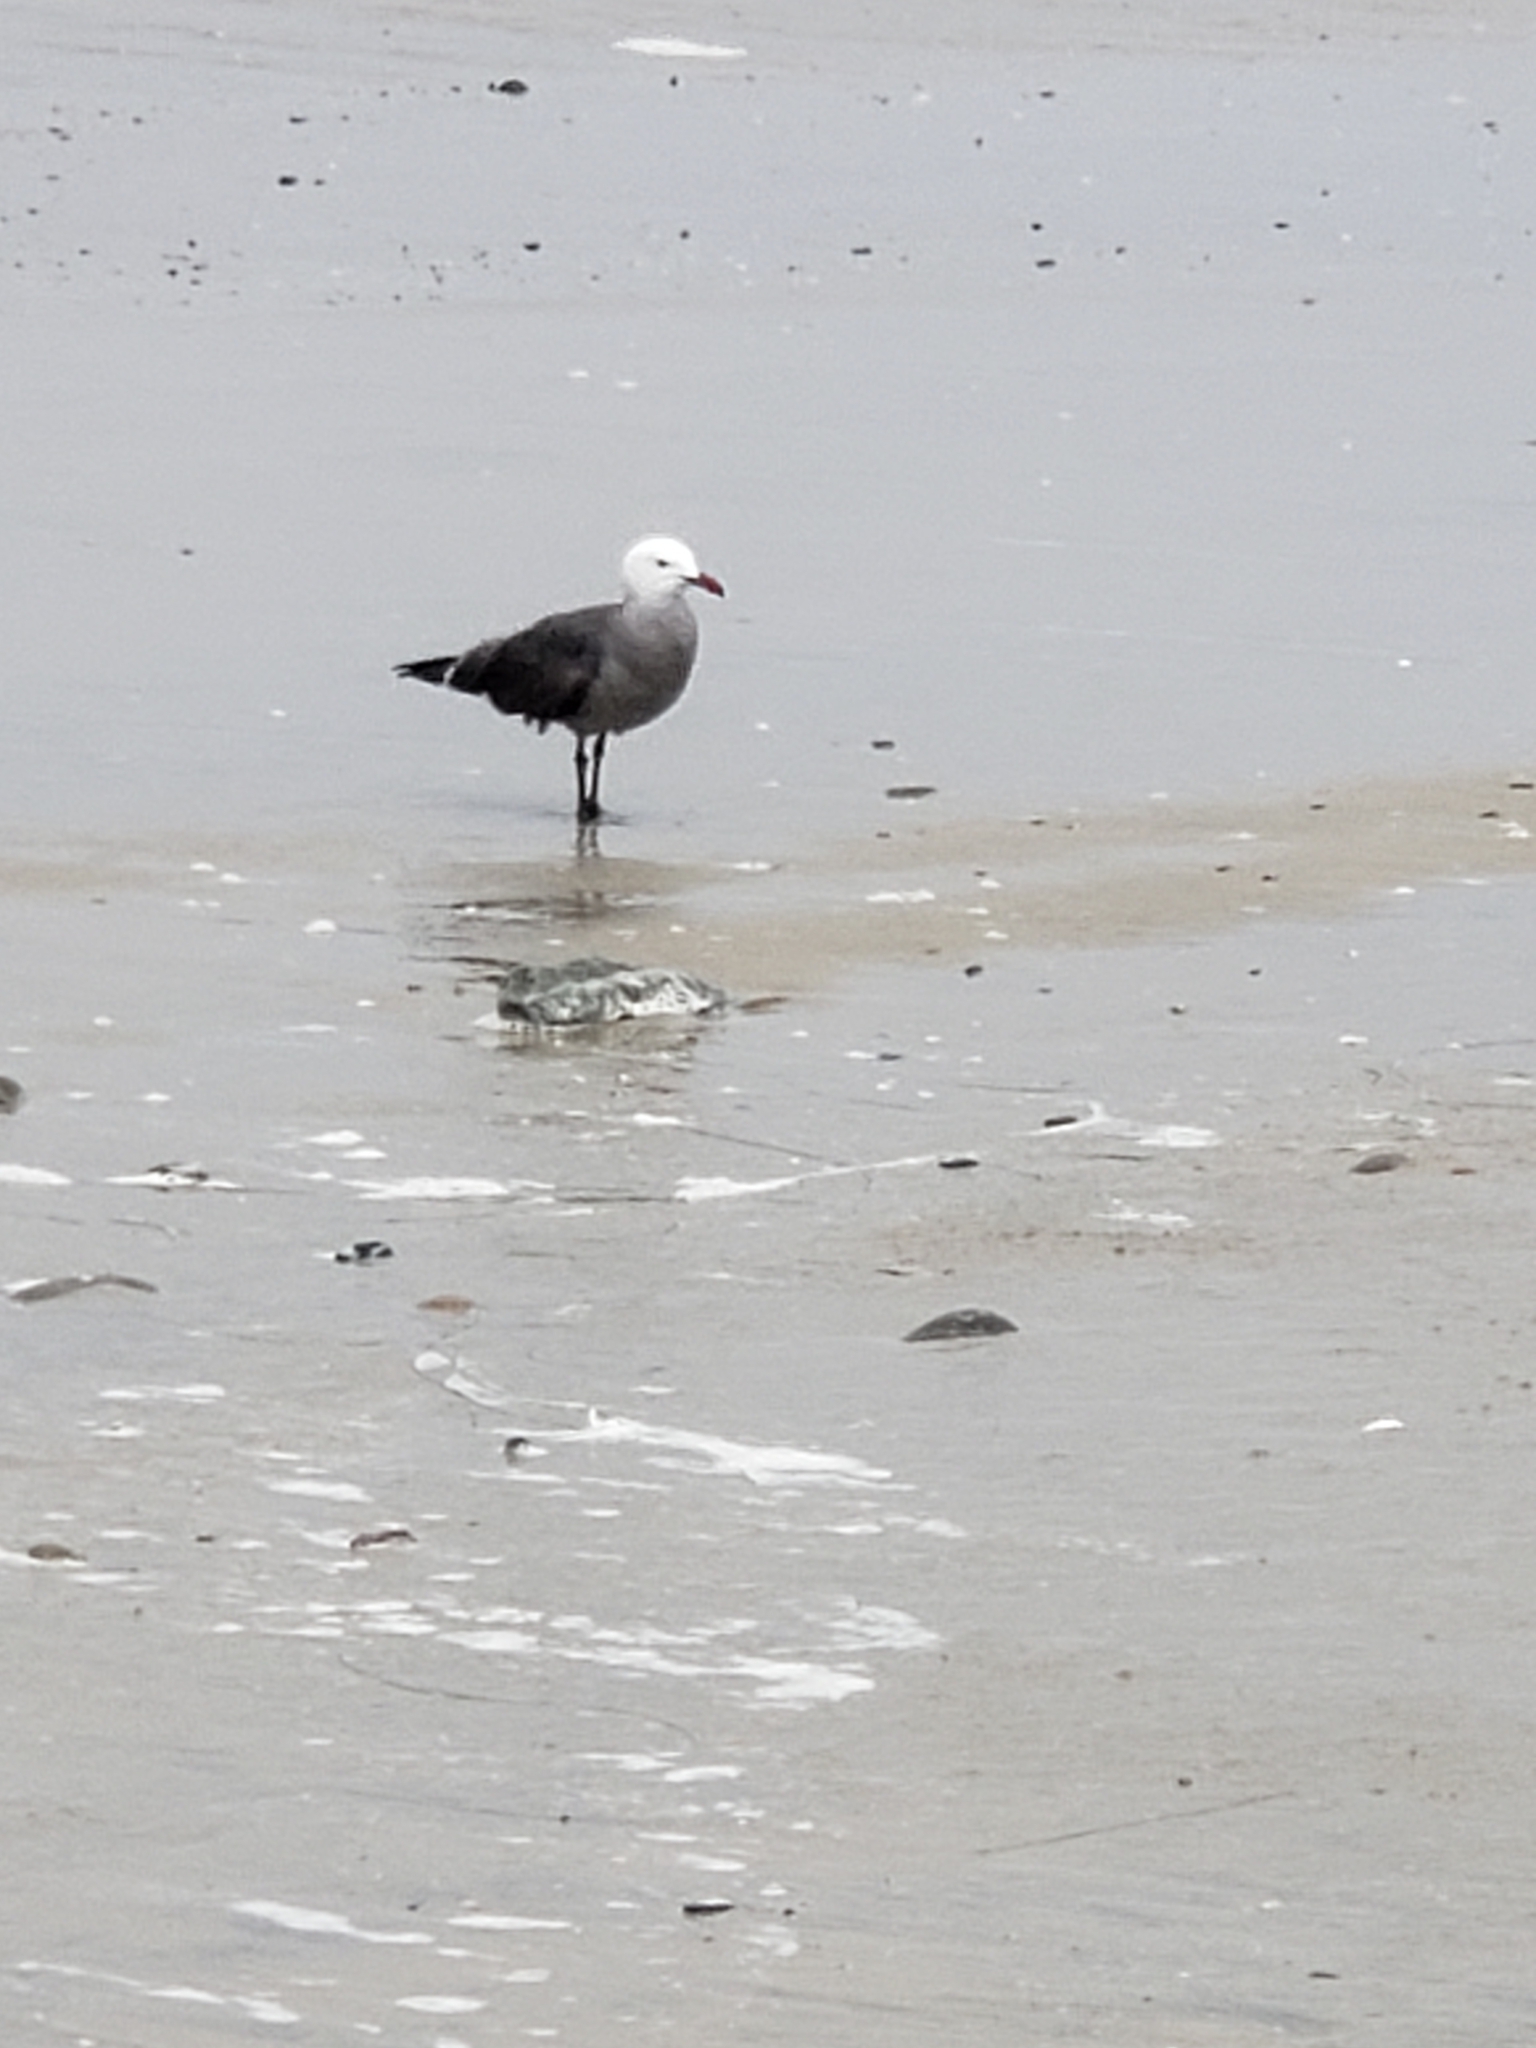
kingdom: Animalia
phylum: Chordata
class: Aves
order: Charadriiformes
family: Laridae
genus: Larus
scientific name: Larus heermanni
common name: Heermann's gull
